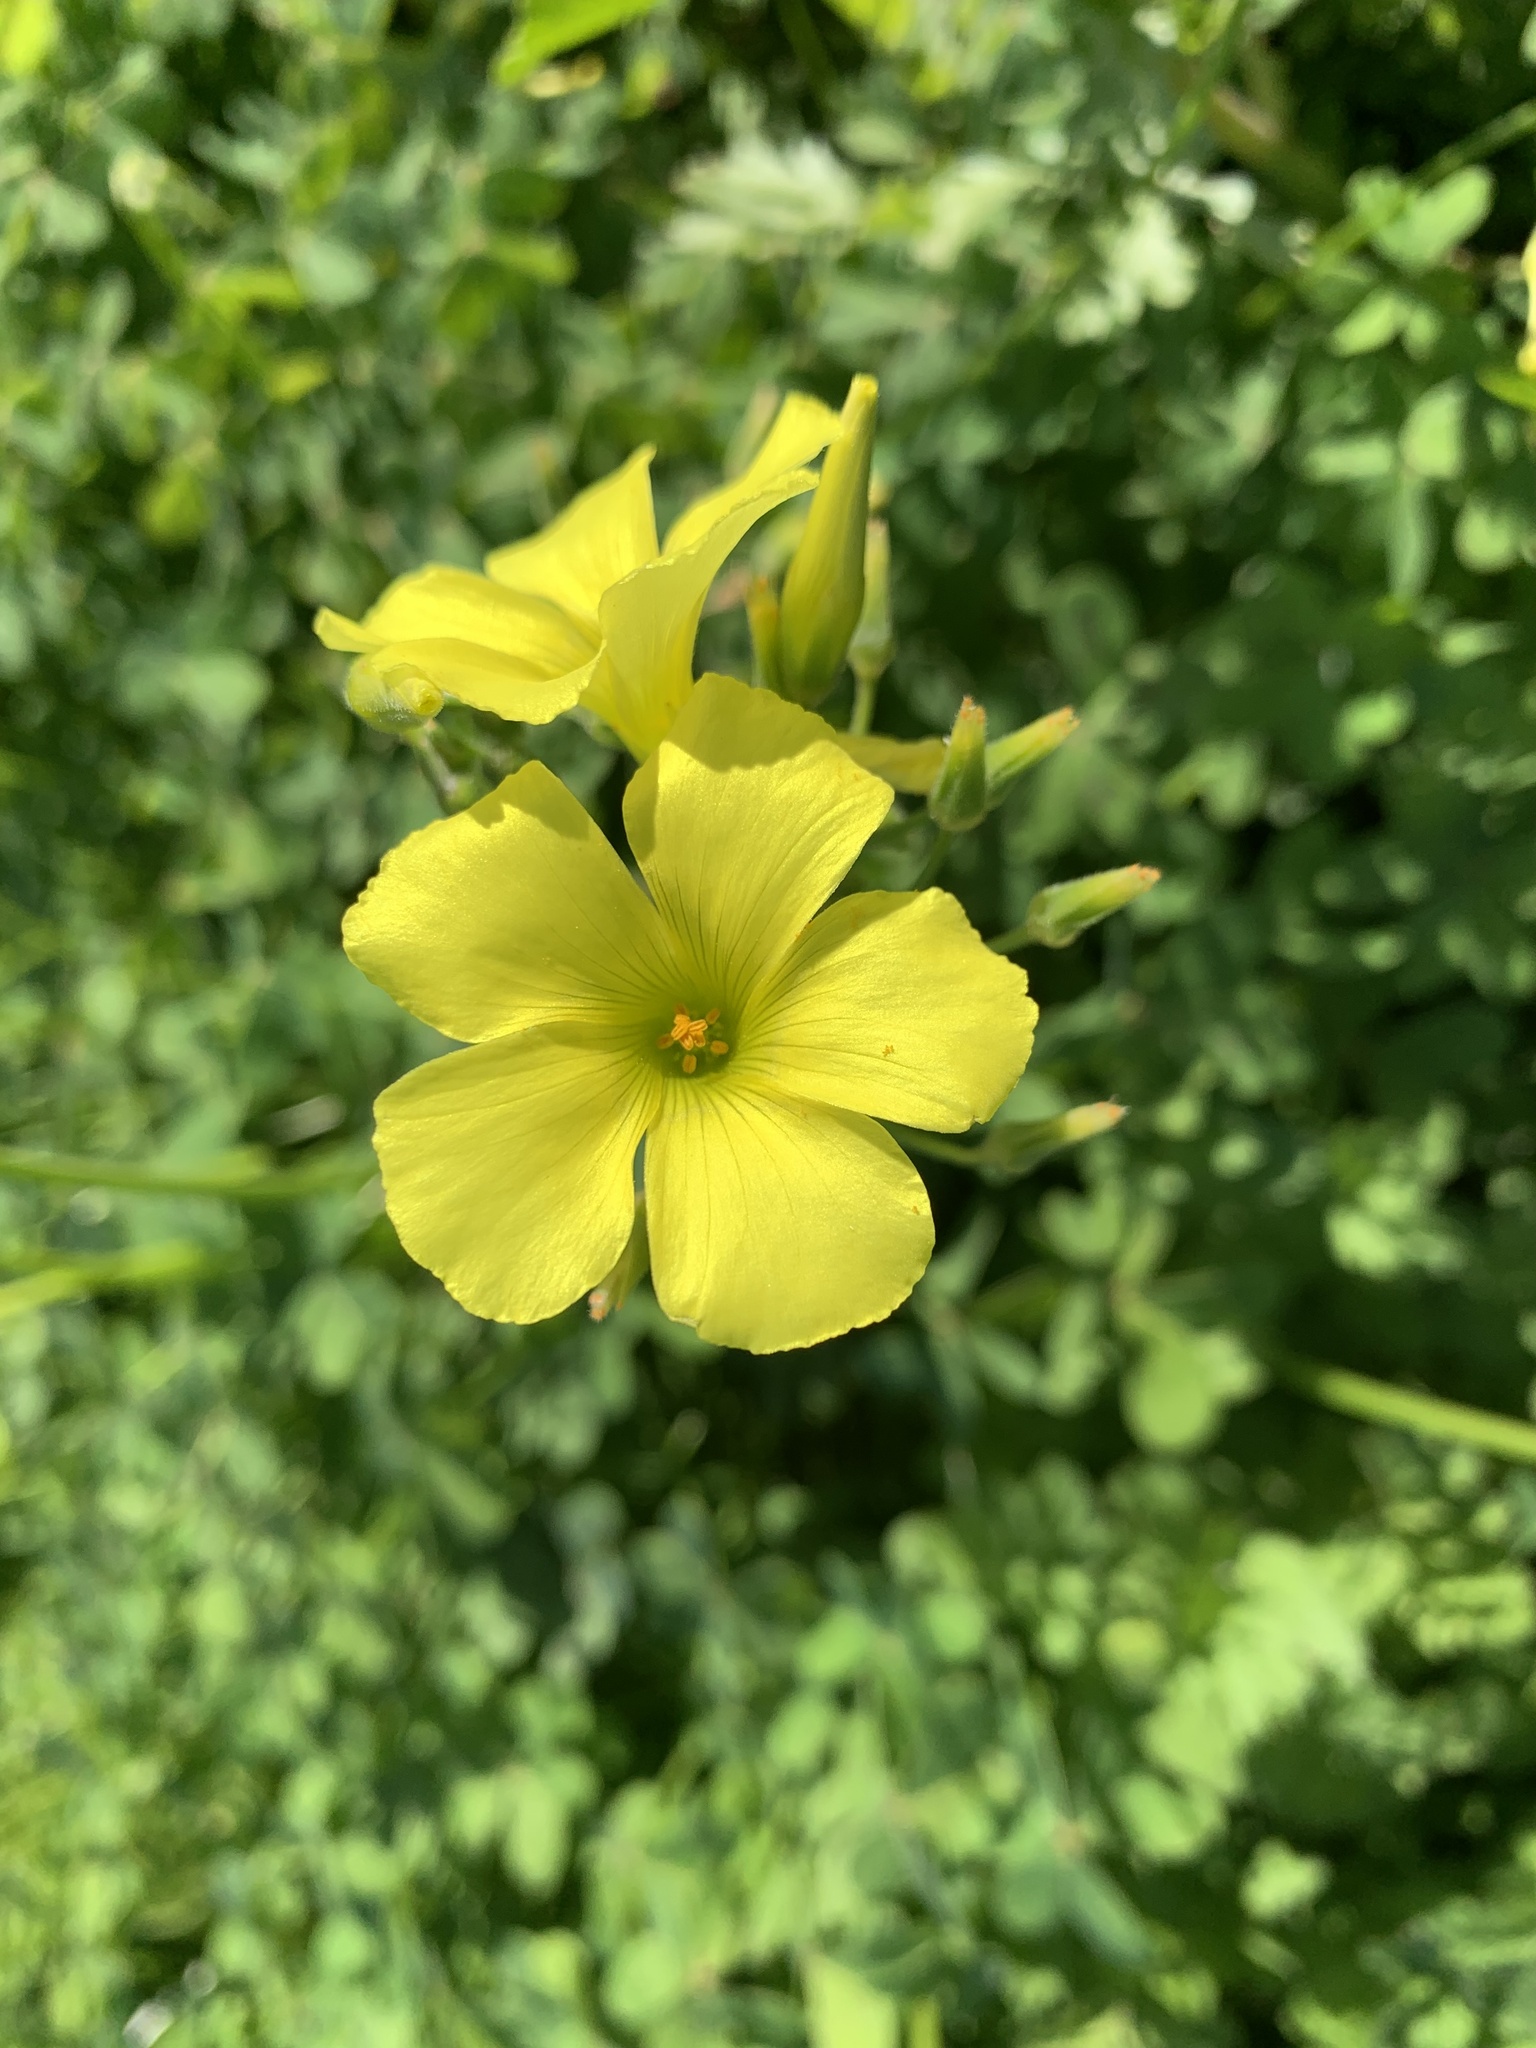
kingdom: Plantae
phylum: Tracheophyta
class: Magnoliopsida
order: Oxalidales
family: Oxalidaceae
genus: Oxalis
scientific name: Oxalis pes-caprae
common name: Bermuda-buttercup
